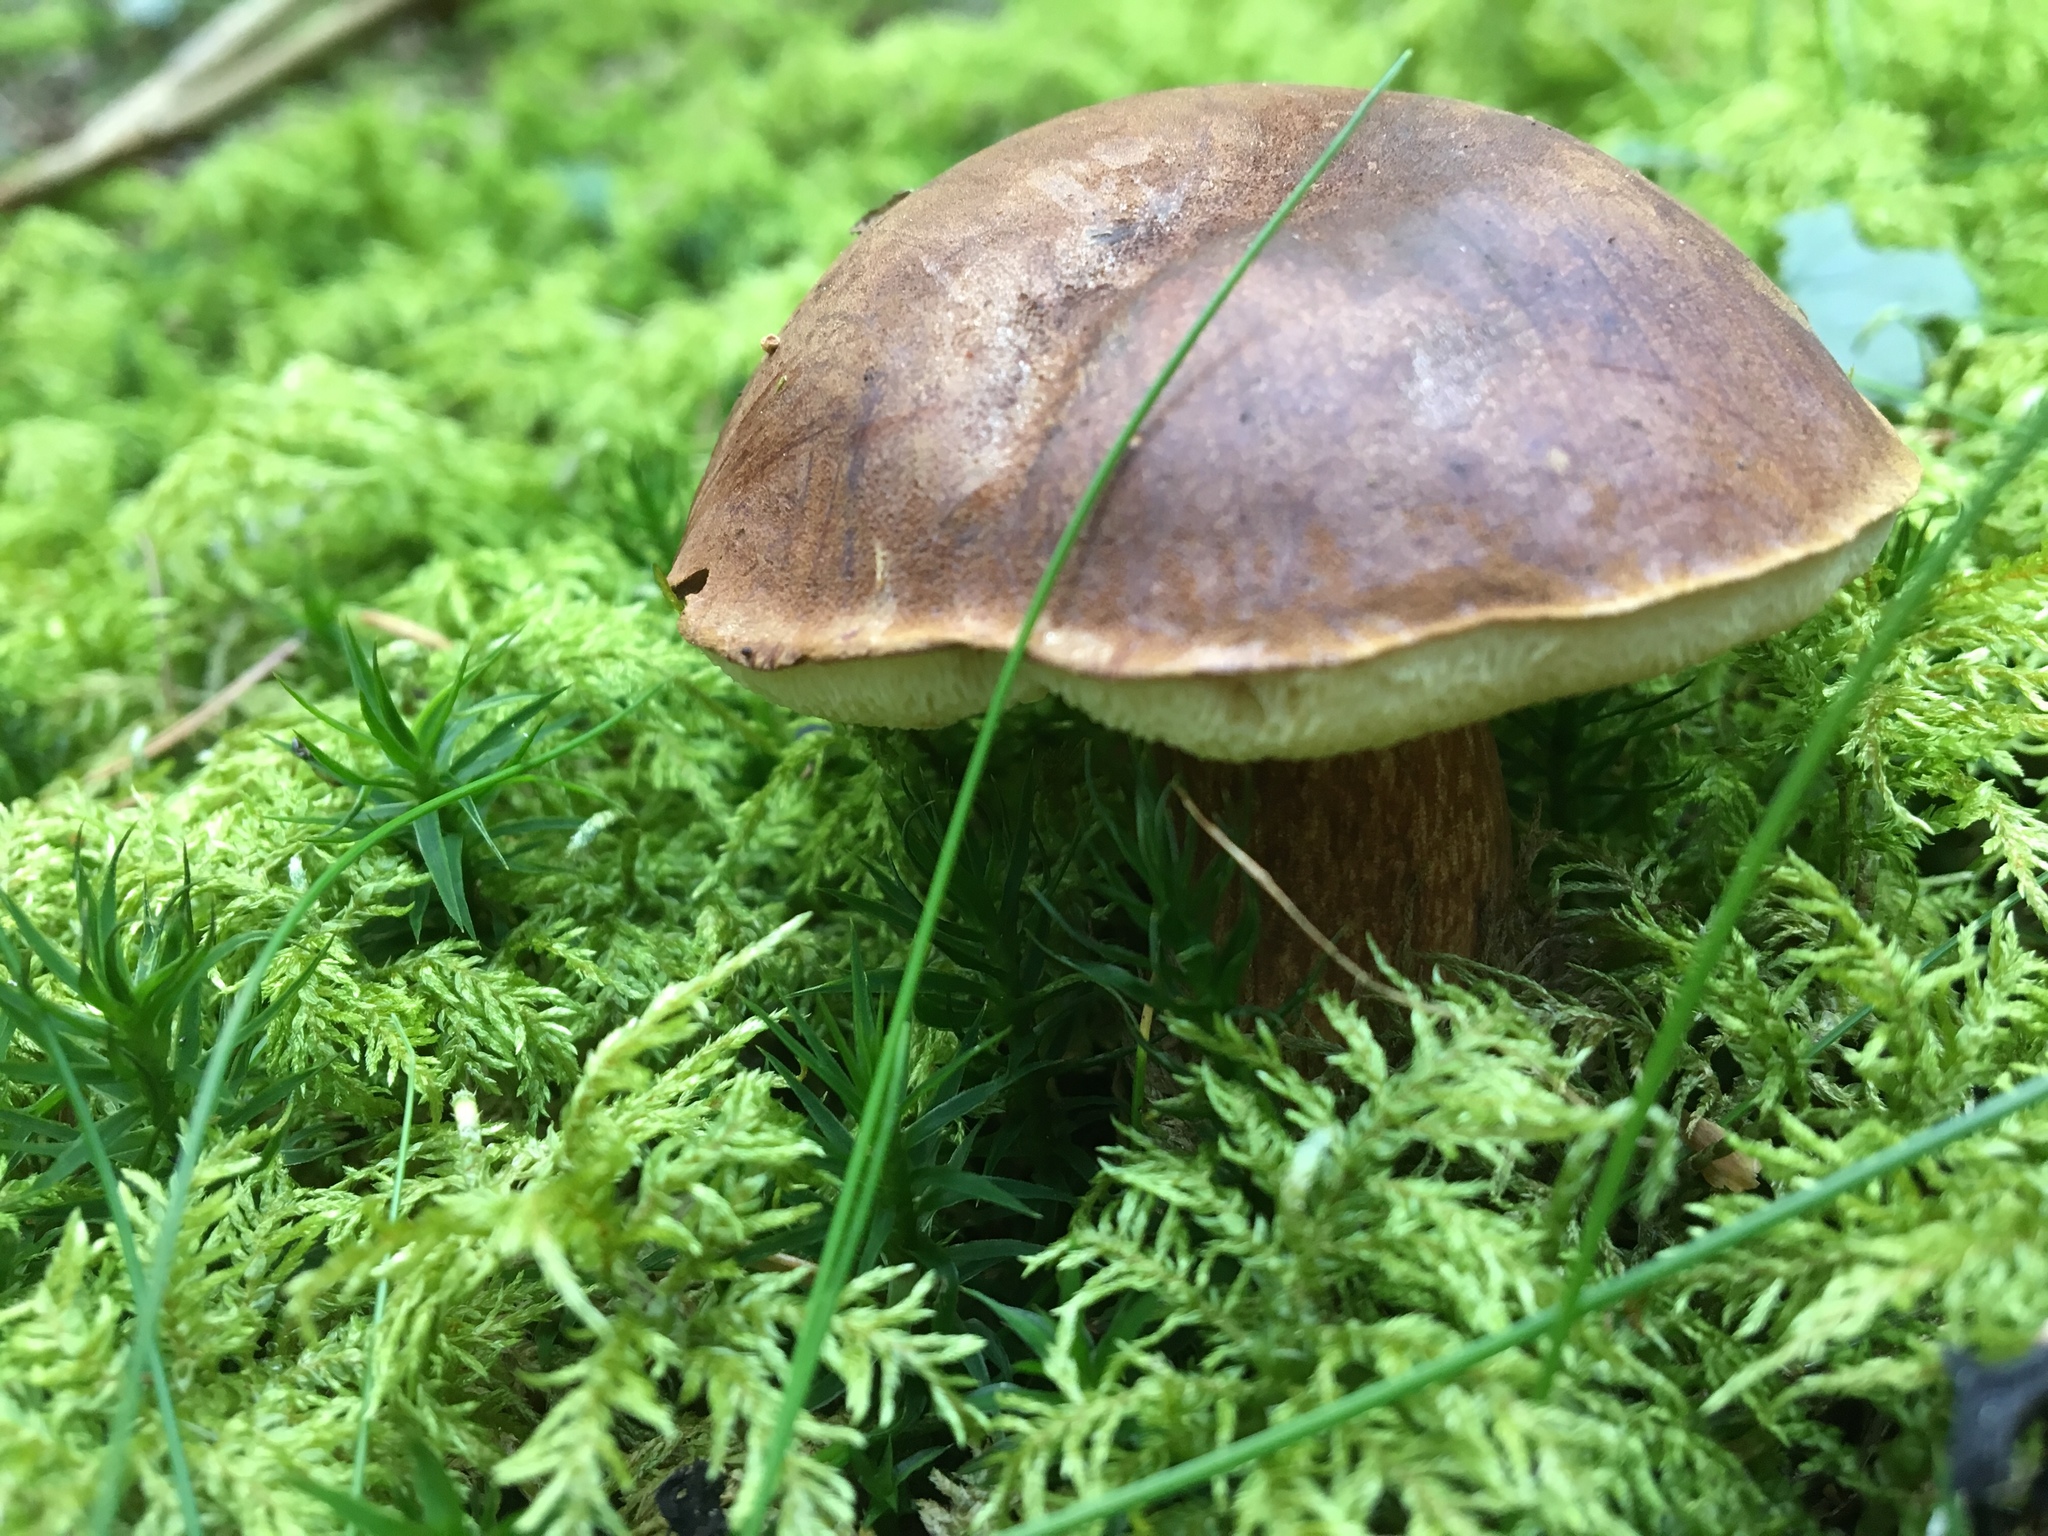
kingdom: Fungi
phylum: Basidiomycota
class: Agaricomycetes
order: Boletales
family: Boletaceae
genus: Imleria
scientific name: Imleria badia
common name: Bay bolete
